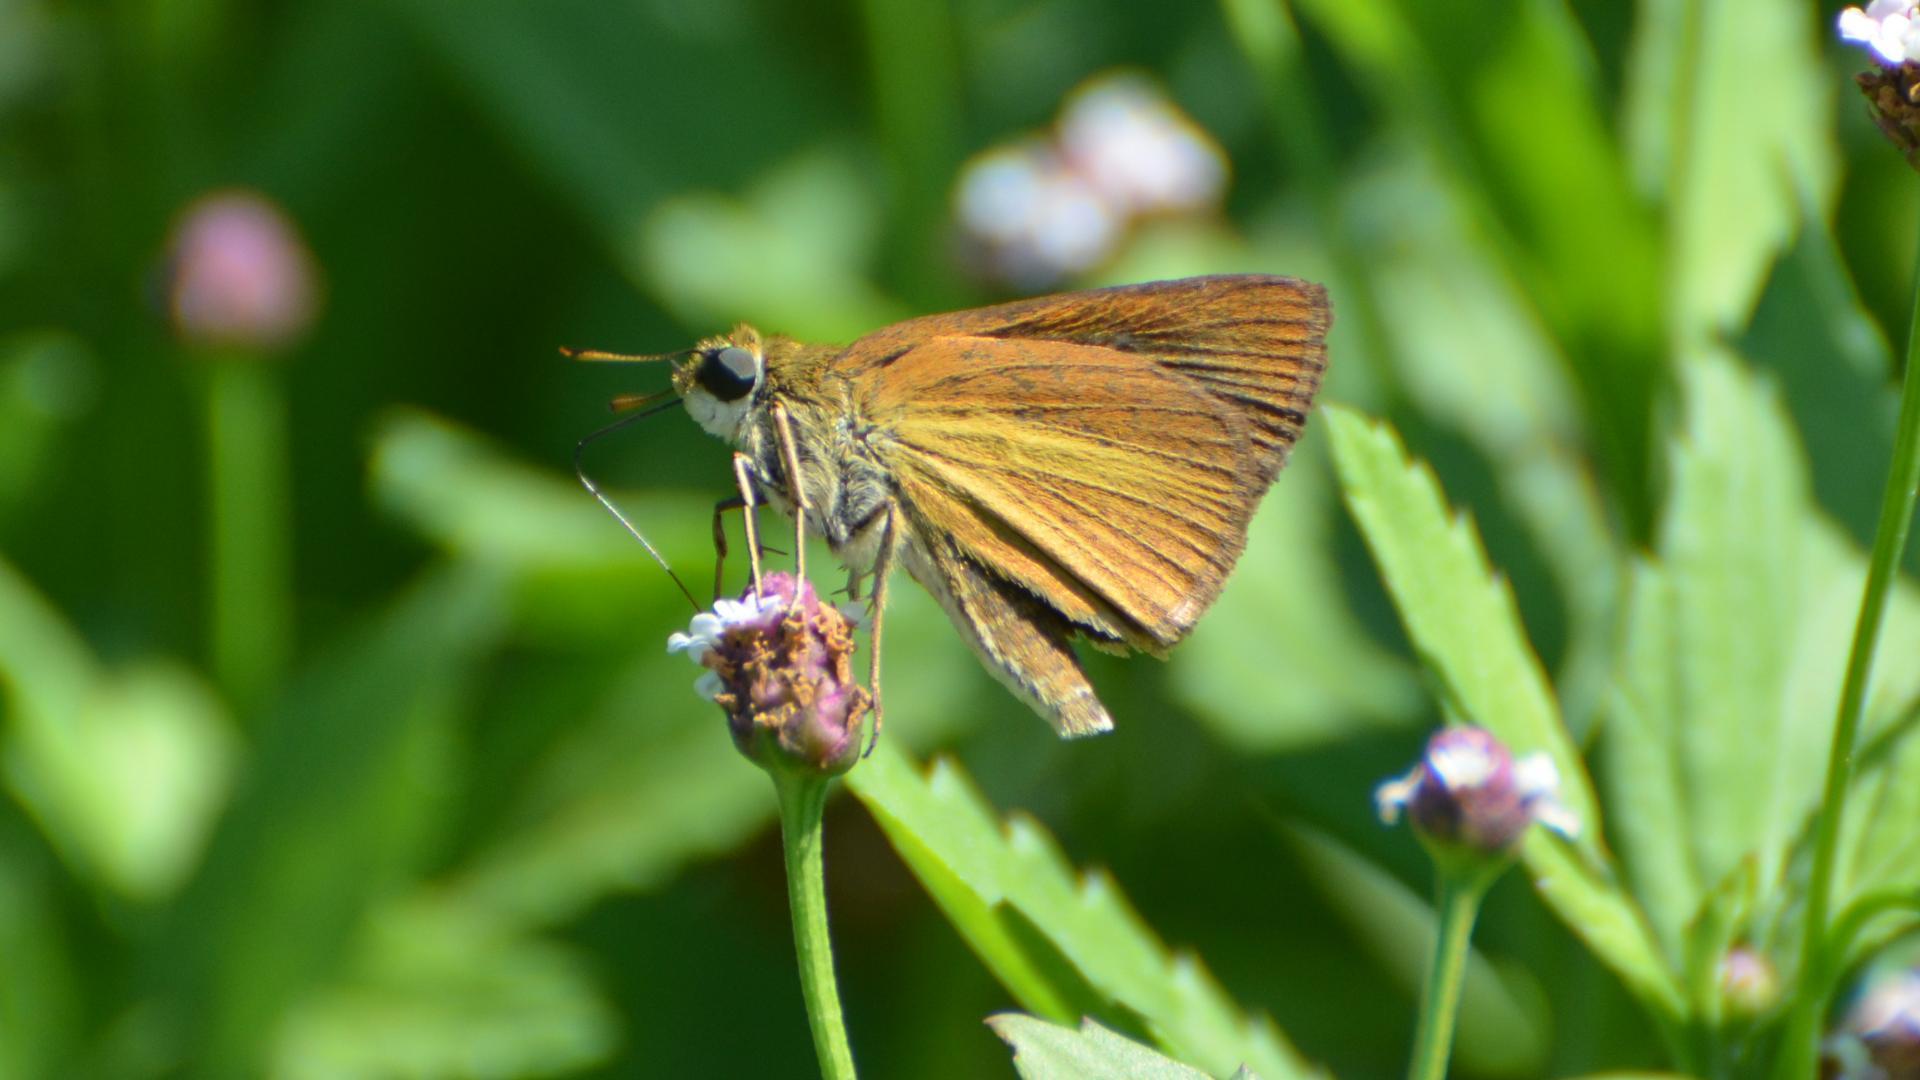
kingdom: Animalia
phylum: Arthropoda
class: Insecta
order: Lepidoptera
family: Hesperiidae
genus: Euphyes
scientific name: Euphyes dukesi
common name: Dukes' skipper
